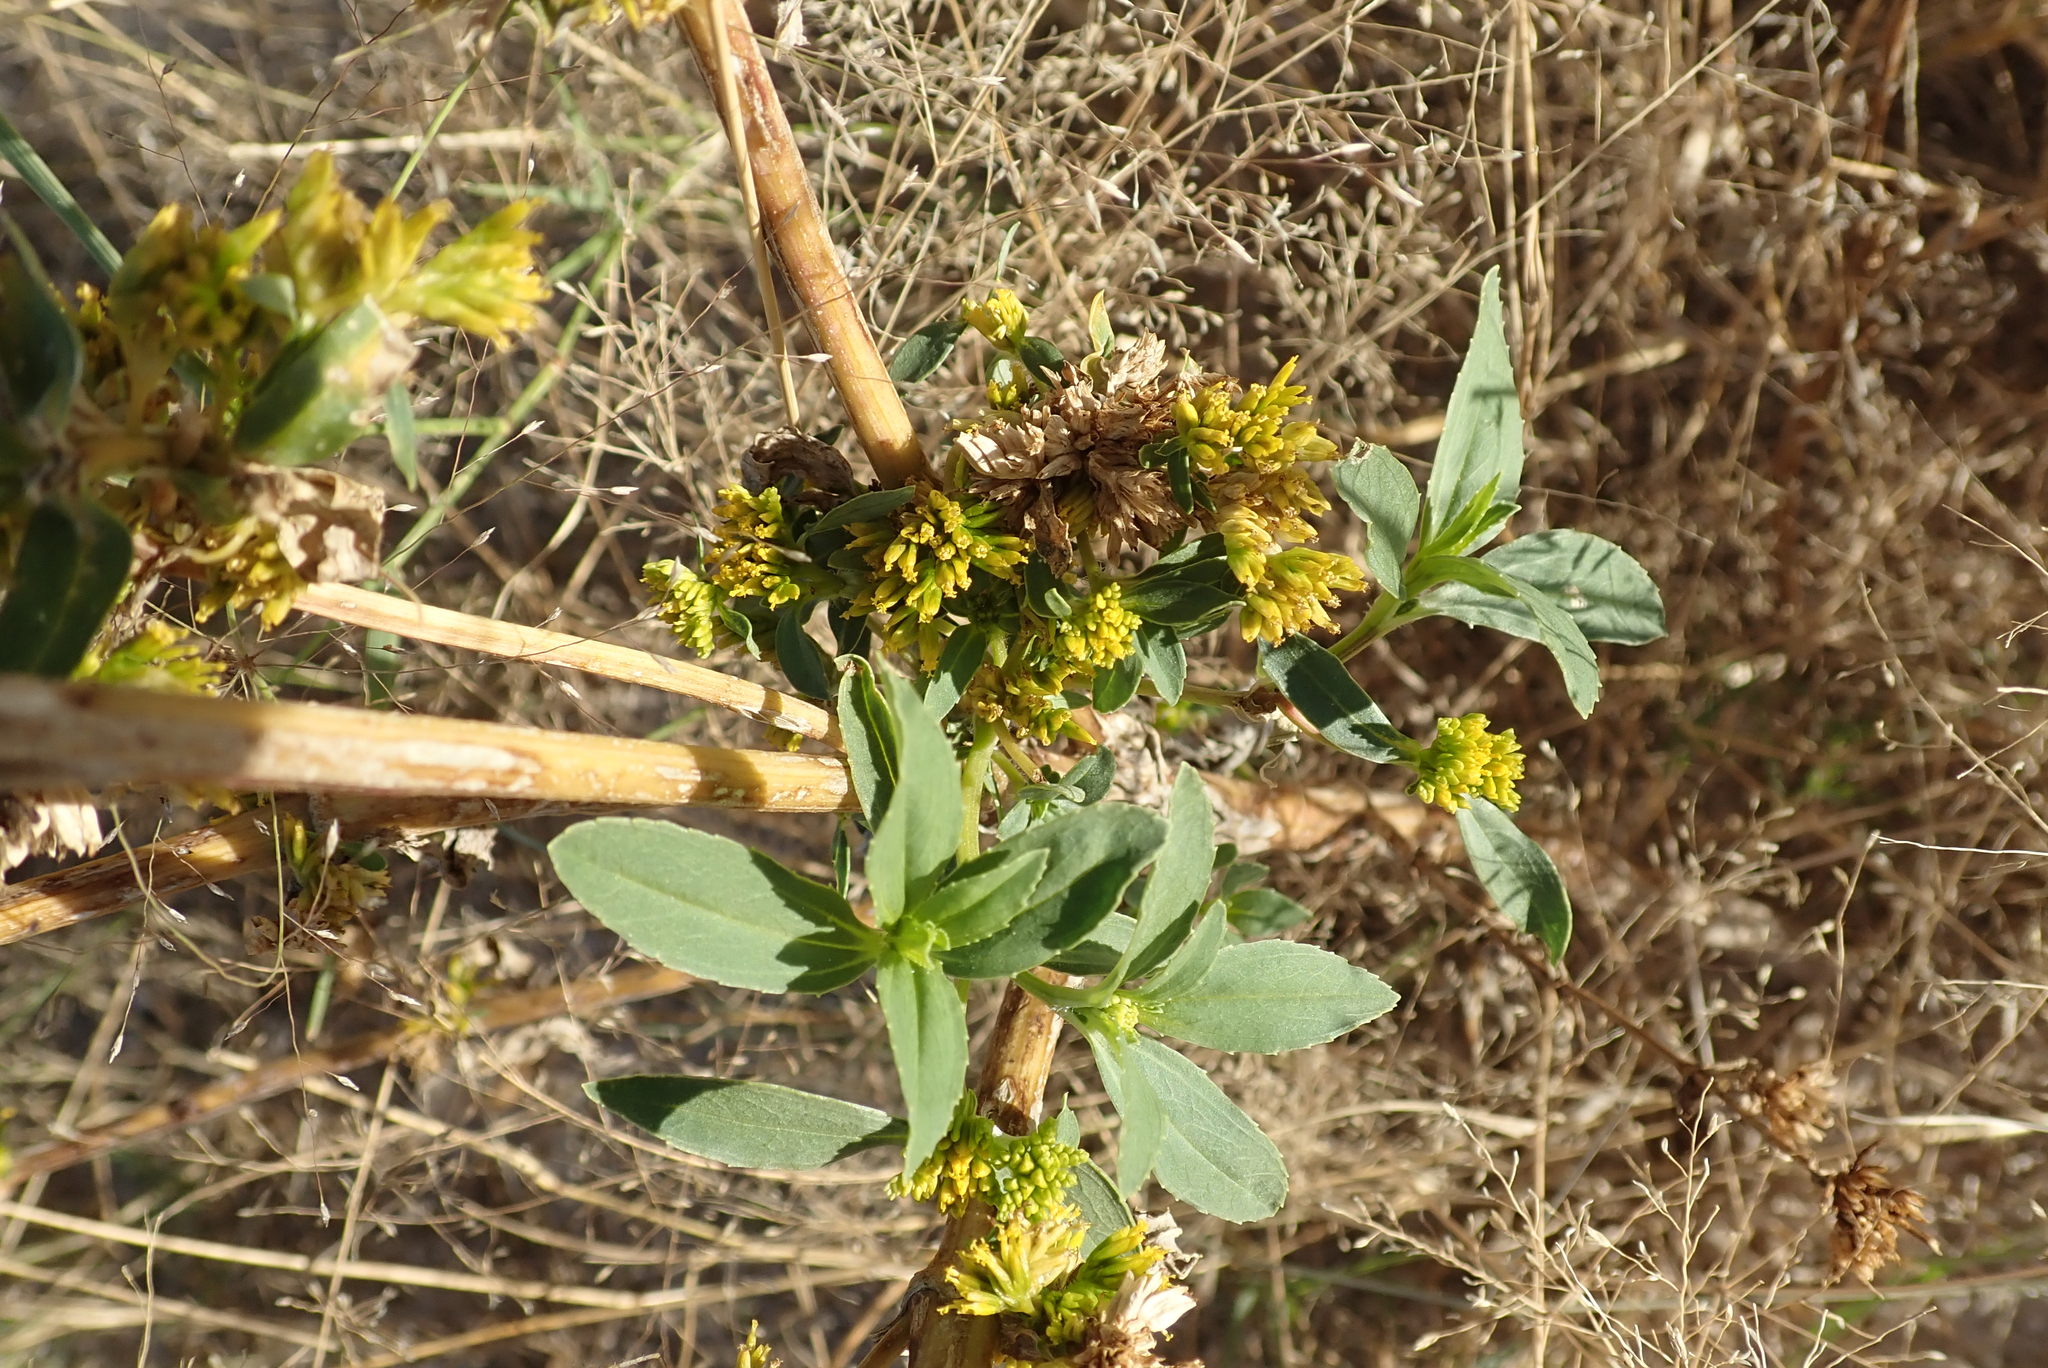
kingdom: Plantae
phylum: Tracheophyta
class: Magnoliopsida
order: Asterales
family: Asteraceae
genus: Flaveria
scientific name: Flaveria bidentis
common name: Coastal plain yellowtops
